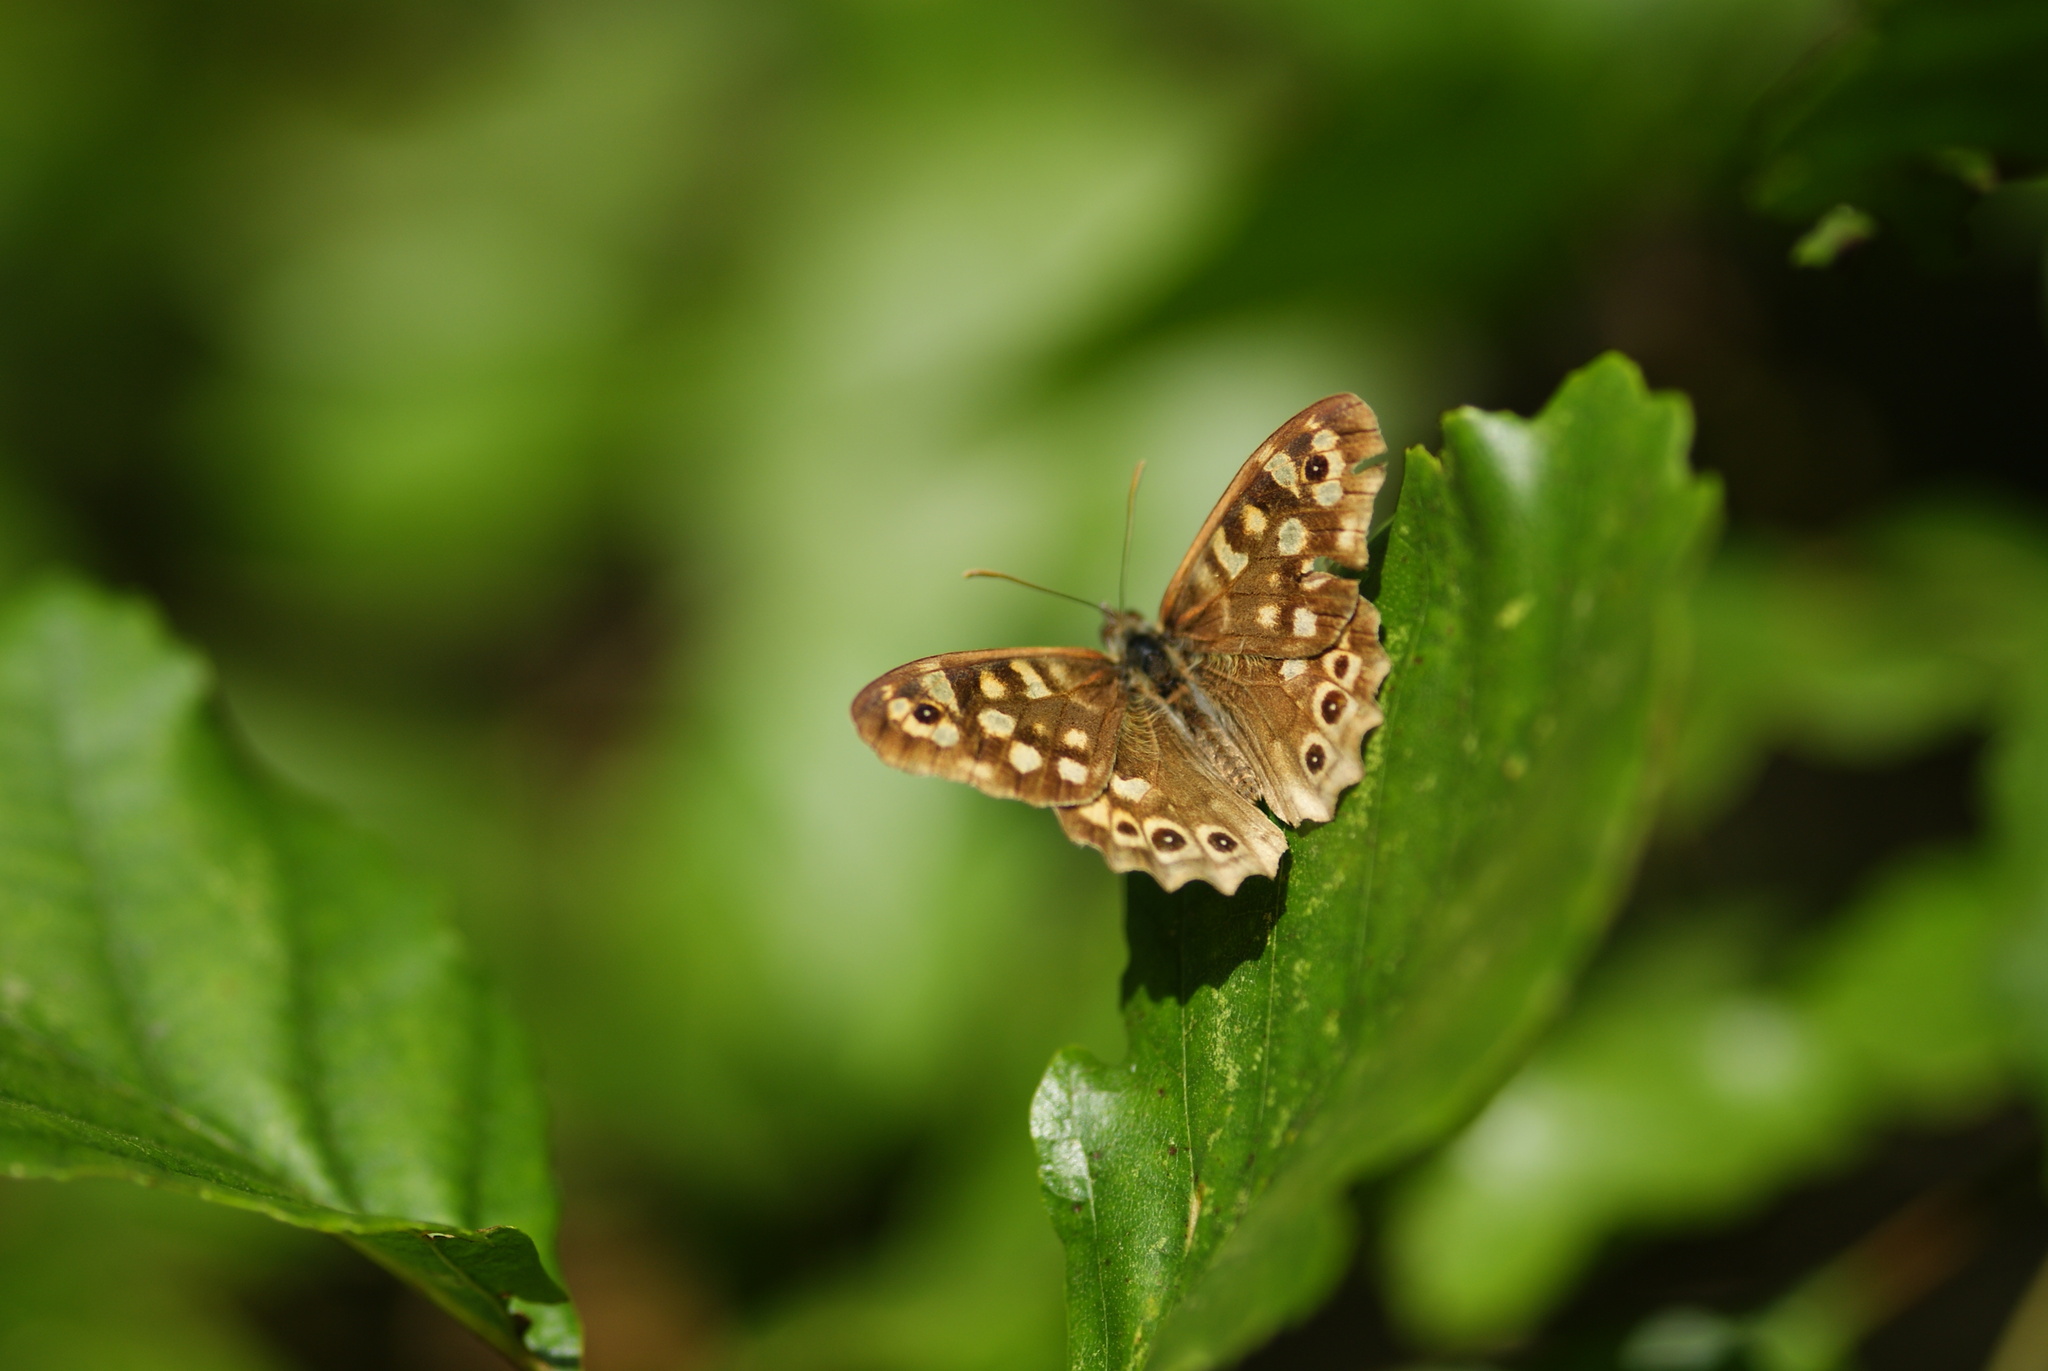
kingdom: Animalia
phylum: Arthropoda
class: Insecta
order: Lepidoptera
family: Nymphalidae
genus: Pararge
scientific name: Pararge aegeria
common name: Speckled wood
